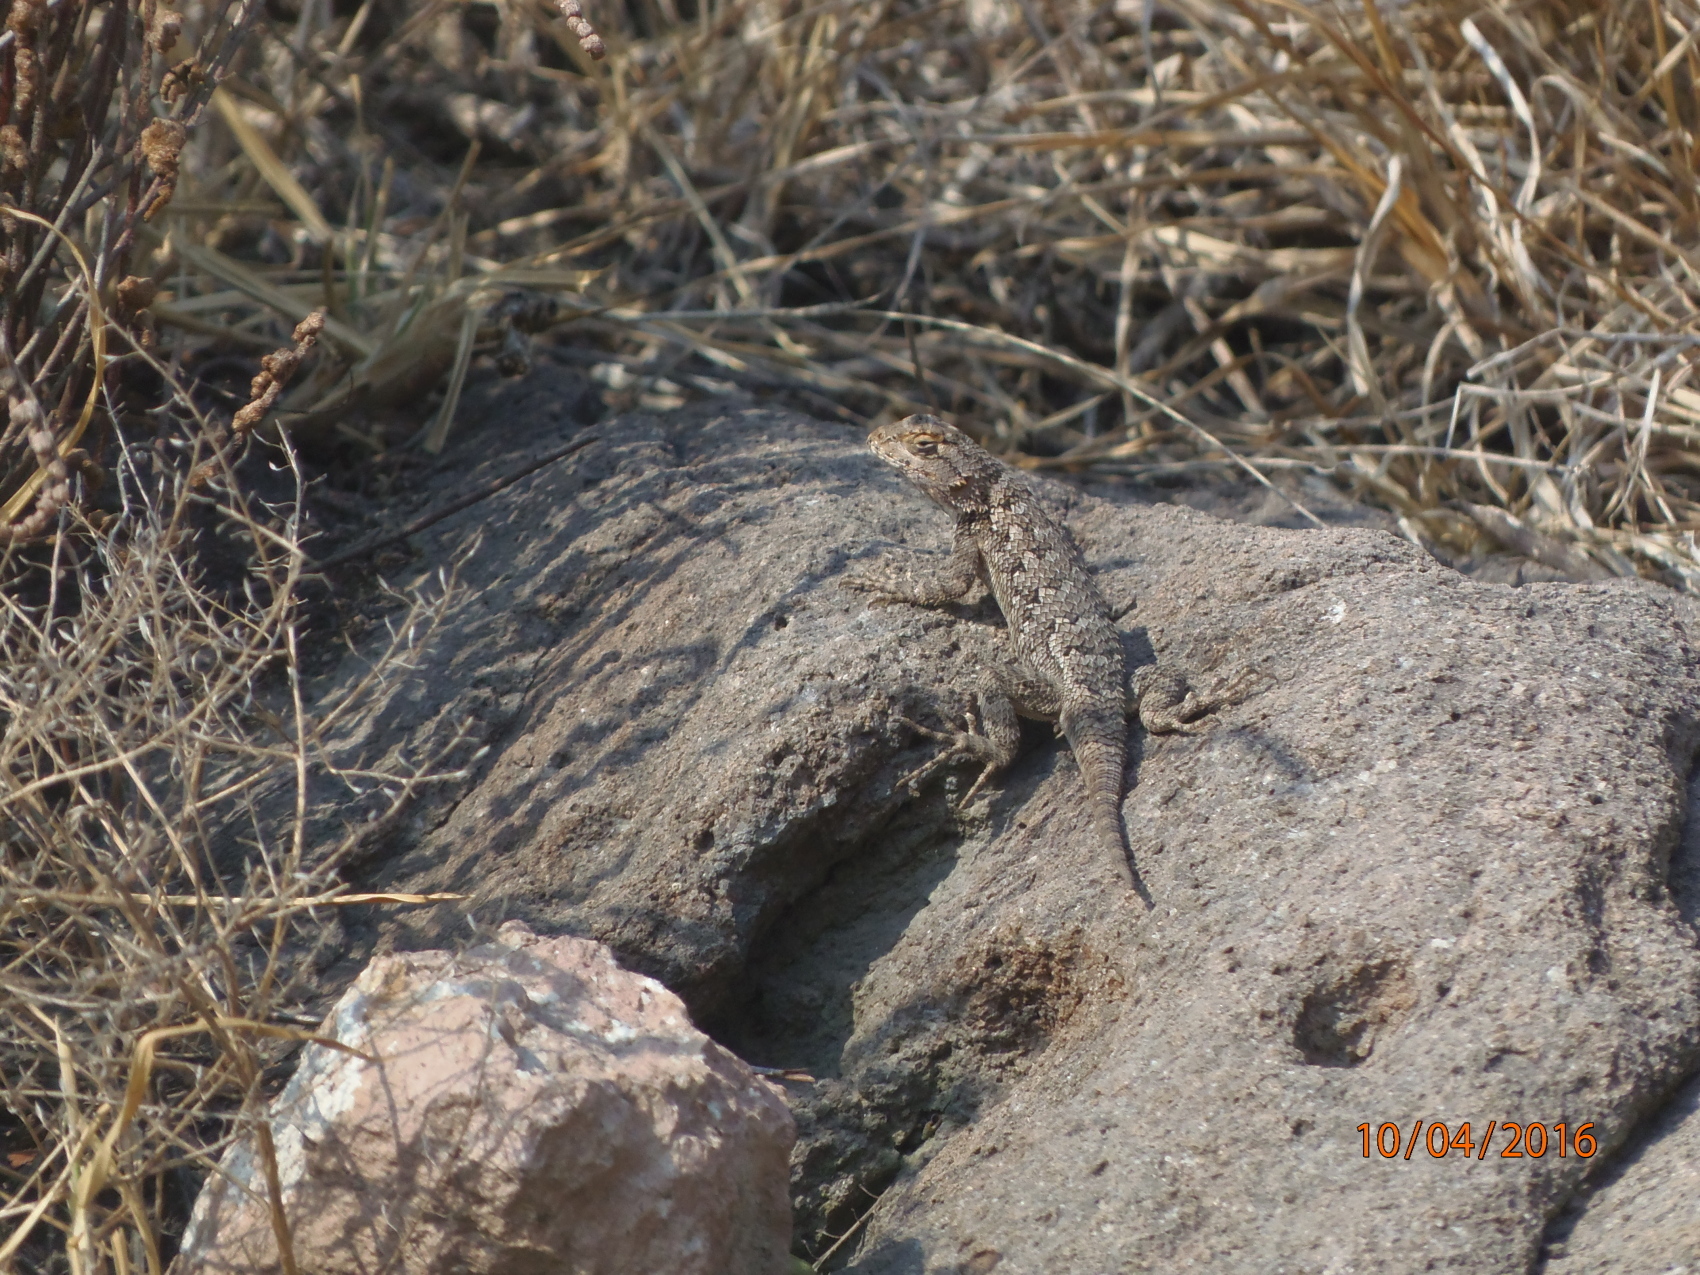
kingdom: Animalia
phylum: Chordata
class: Squamata
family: Phrynosomatidae
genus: Sceloporus
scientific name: Sceloporus spinosus
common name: Blue-spotted spiny lizard [caeruleopunctatus]
